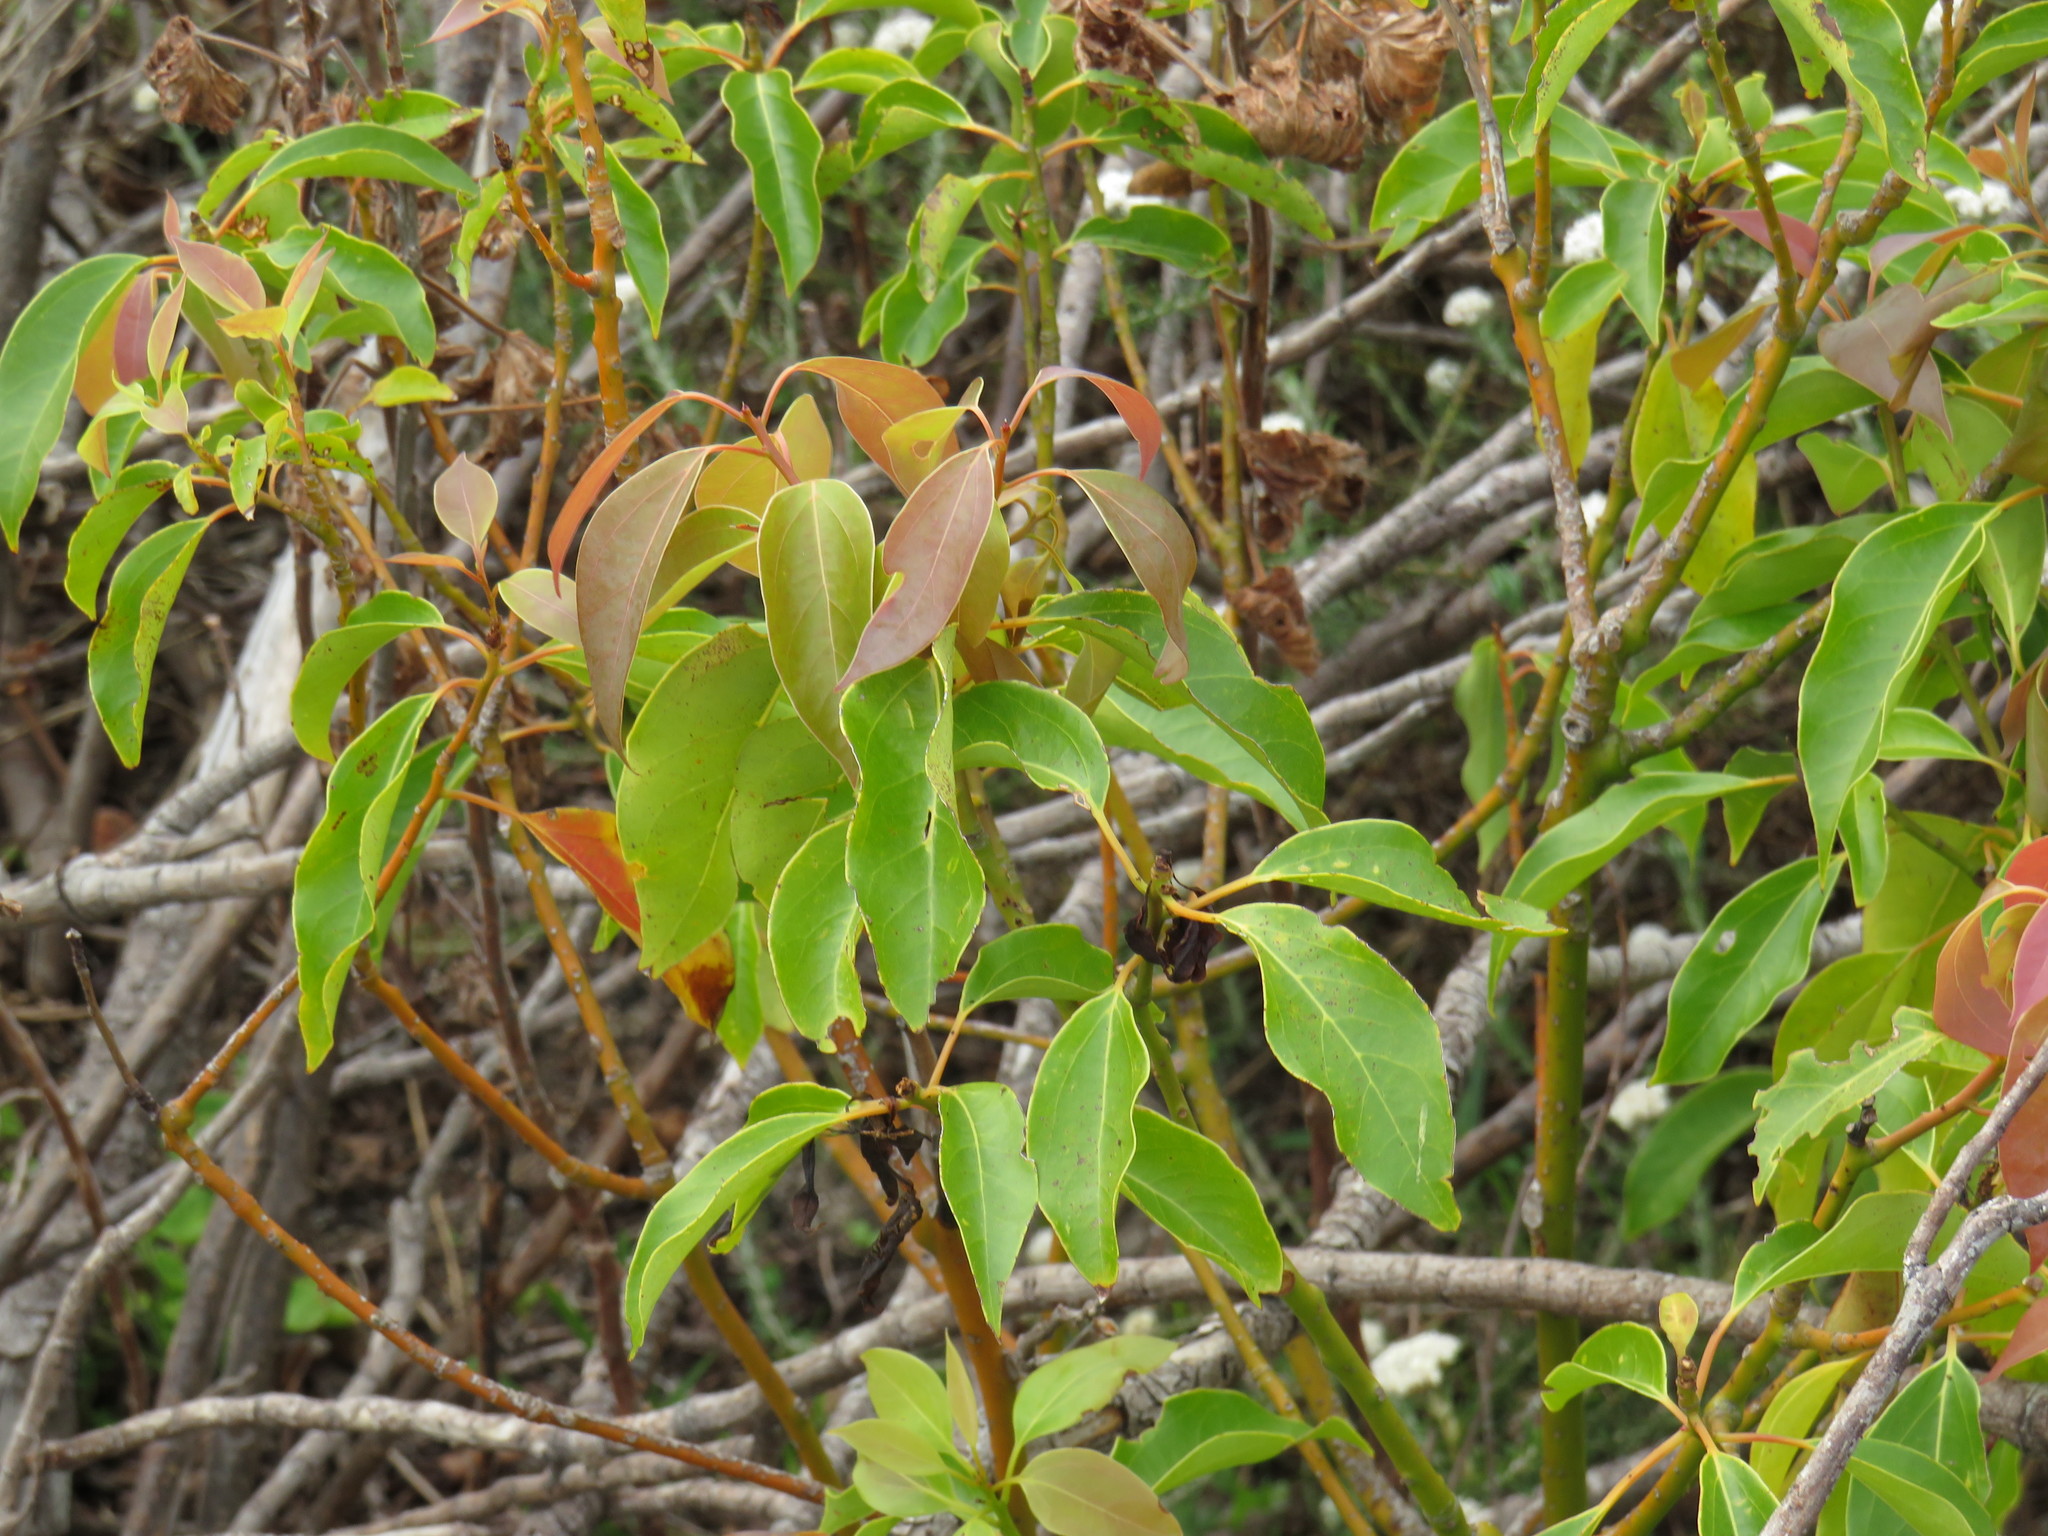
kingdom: Plantae
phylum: Tracheophyta
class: Magnoliopsida
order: Laurales
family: Lauraceae
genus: Cinnamomum
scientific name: Cinnamomum camphora
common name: Camphortree
